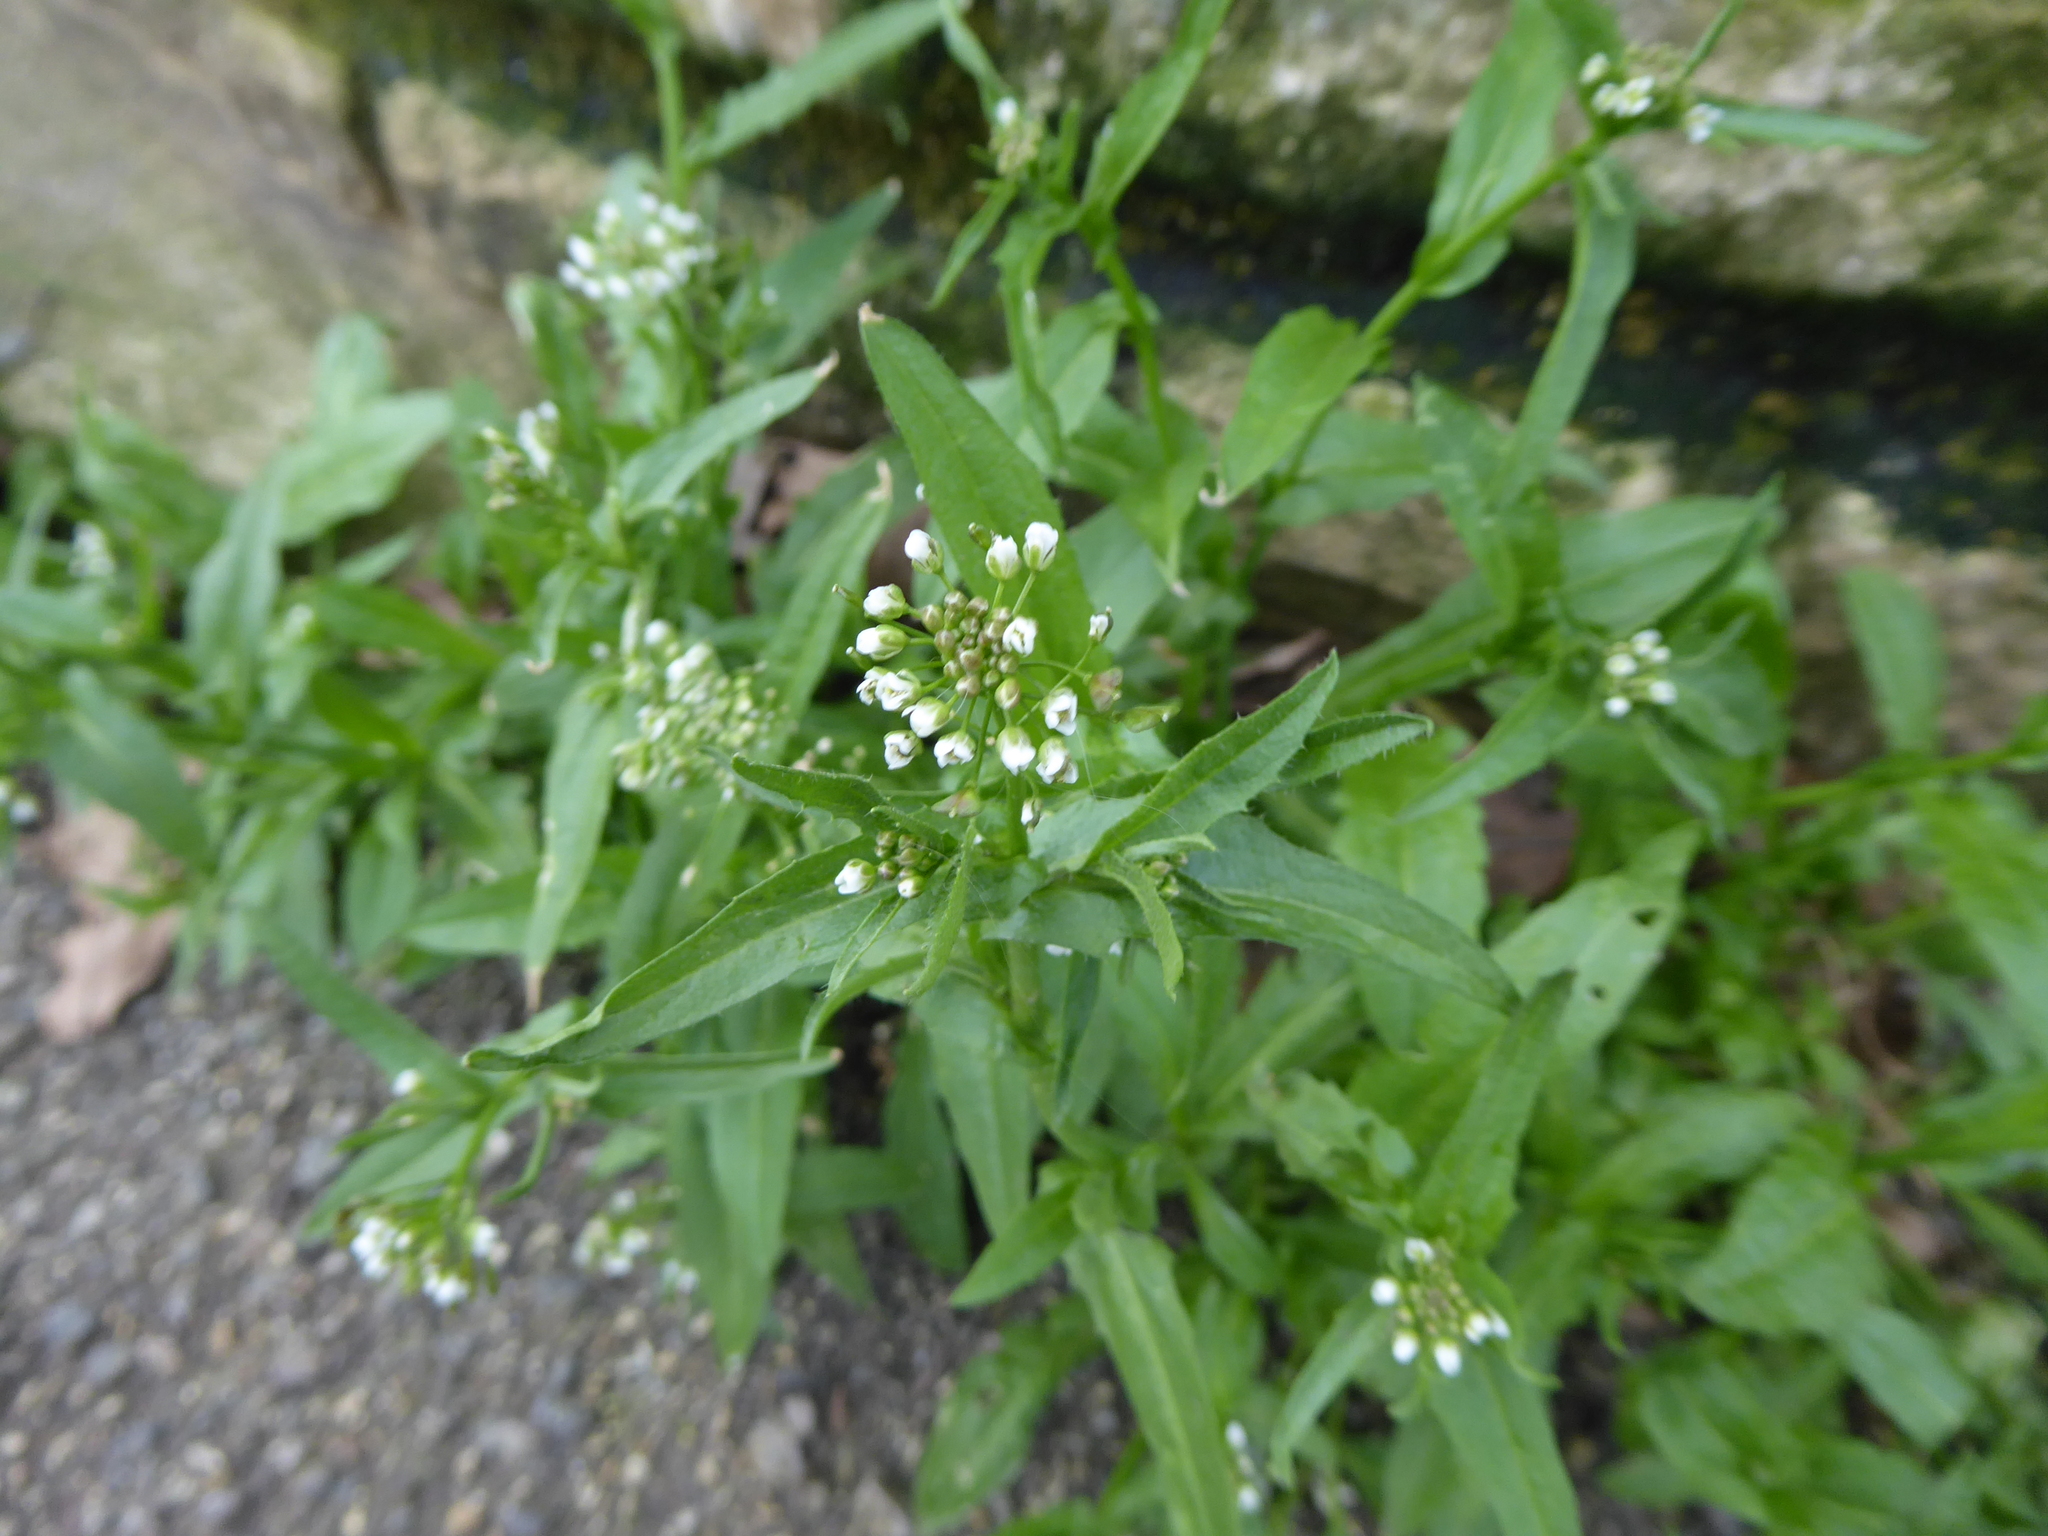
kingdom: Plantae
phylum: Tracheophyta
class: Magnoliopsida
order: Brassicales
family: Brassicaceae
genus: Capsella
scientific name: Capsella bursa-pastoris
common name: Shepherd's purse
